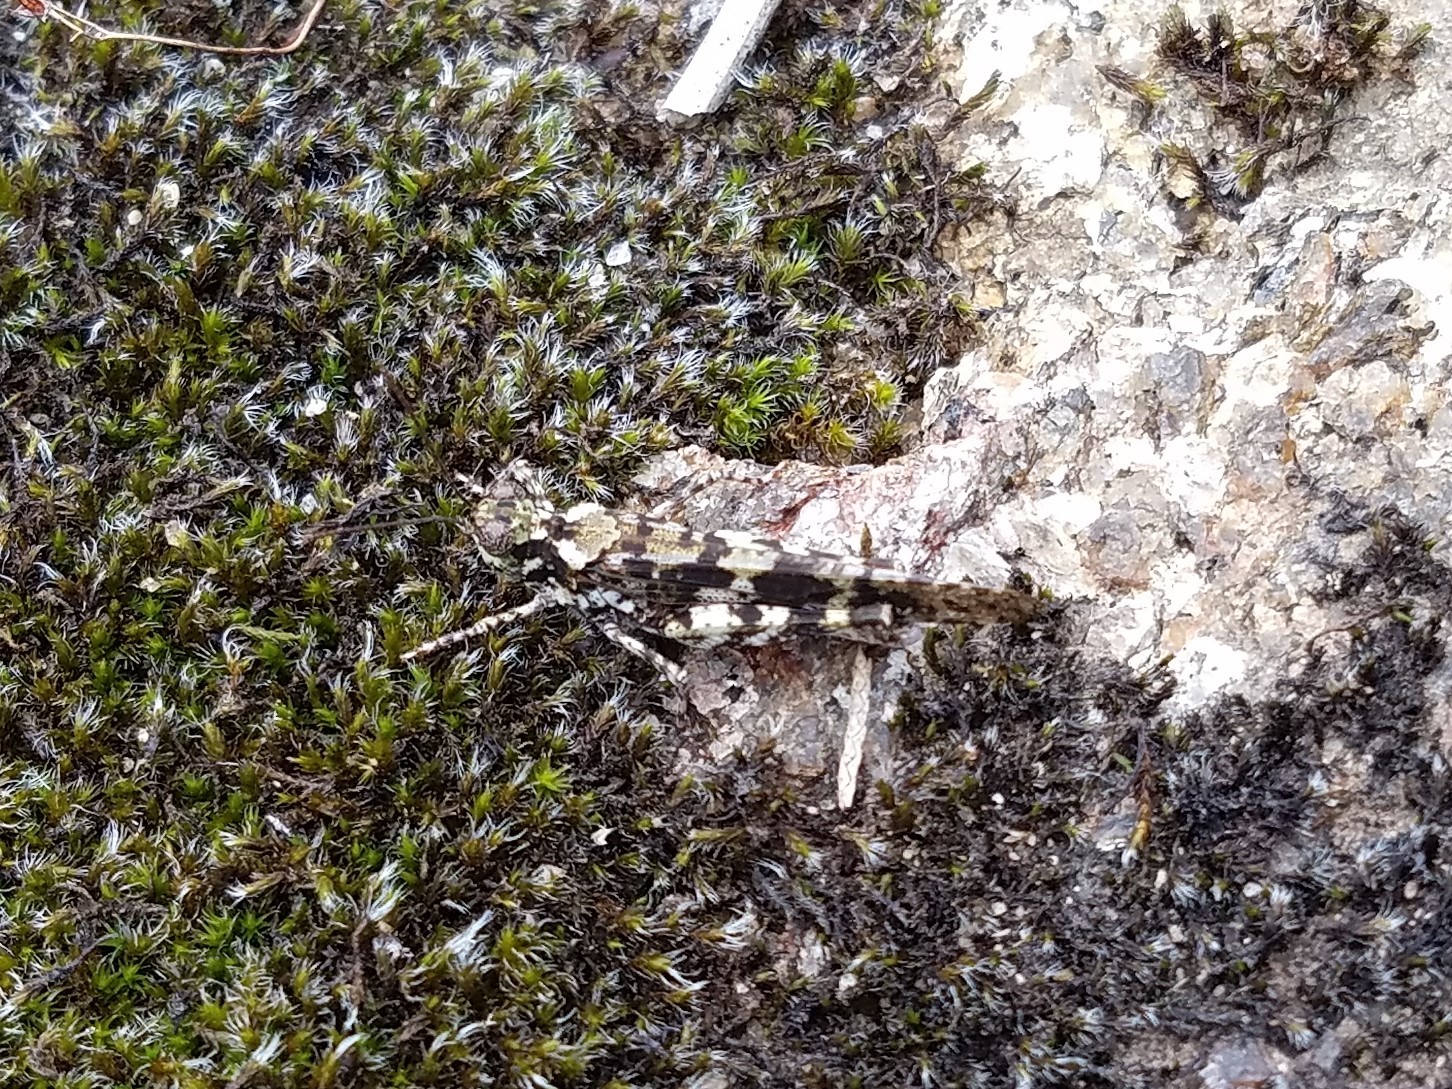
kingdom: Animalia
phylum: Arthropoda
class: Insecta
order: Orthoptera
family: Acrididae
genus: Trimerotropis
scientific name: Trimerotropis saxatilis
